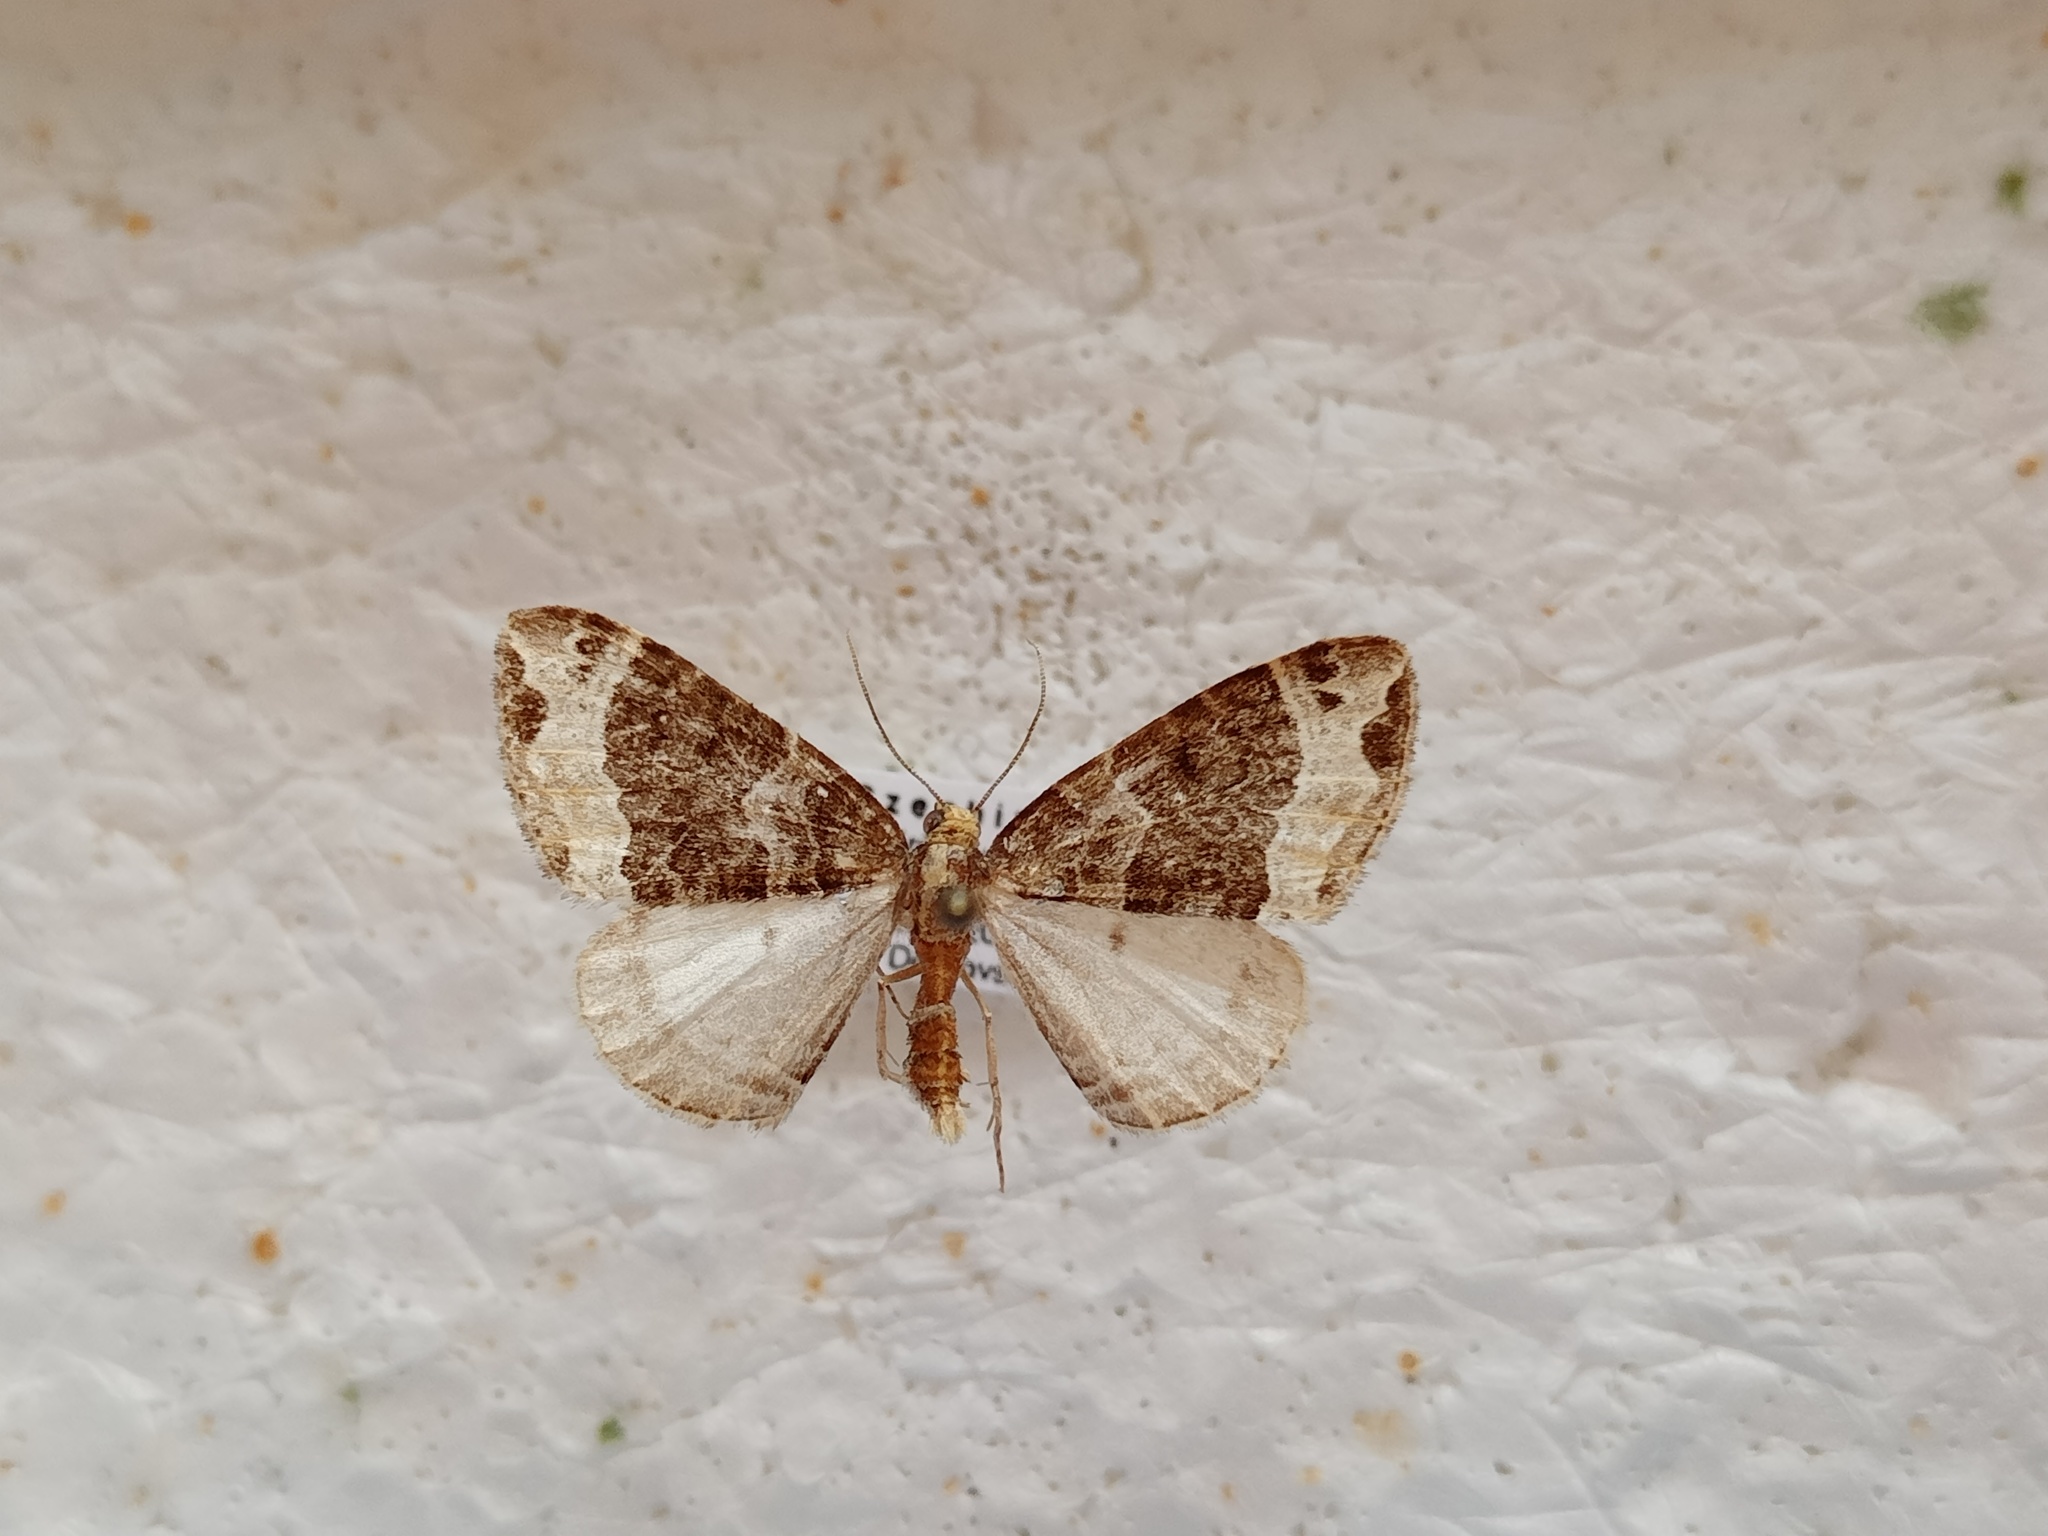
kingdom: Animalia
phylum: Arthropoda
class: Insecta
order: Lepidoptera
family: Geometridae
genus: Ecliptopera
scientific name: Ecliptopera capitata
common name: Yellow-headed phoenix
